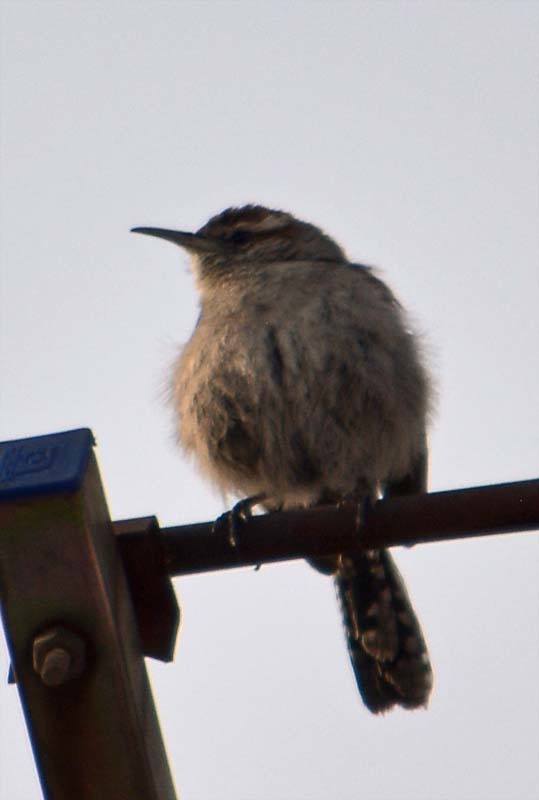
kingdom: Animalia
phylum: Chordata
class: Aves
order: Passeriformes
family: Troglodytidae
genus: Thryomanes
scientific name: Thryomanes bewickii
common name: Bewick's wren
